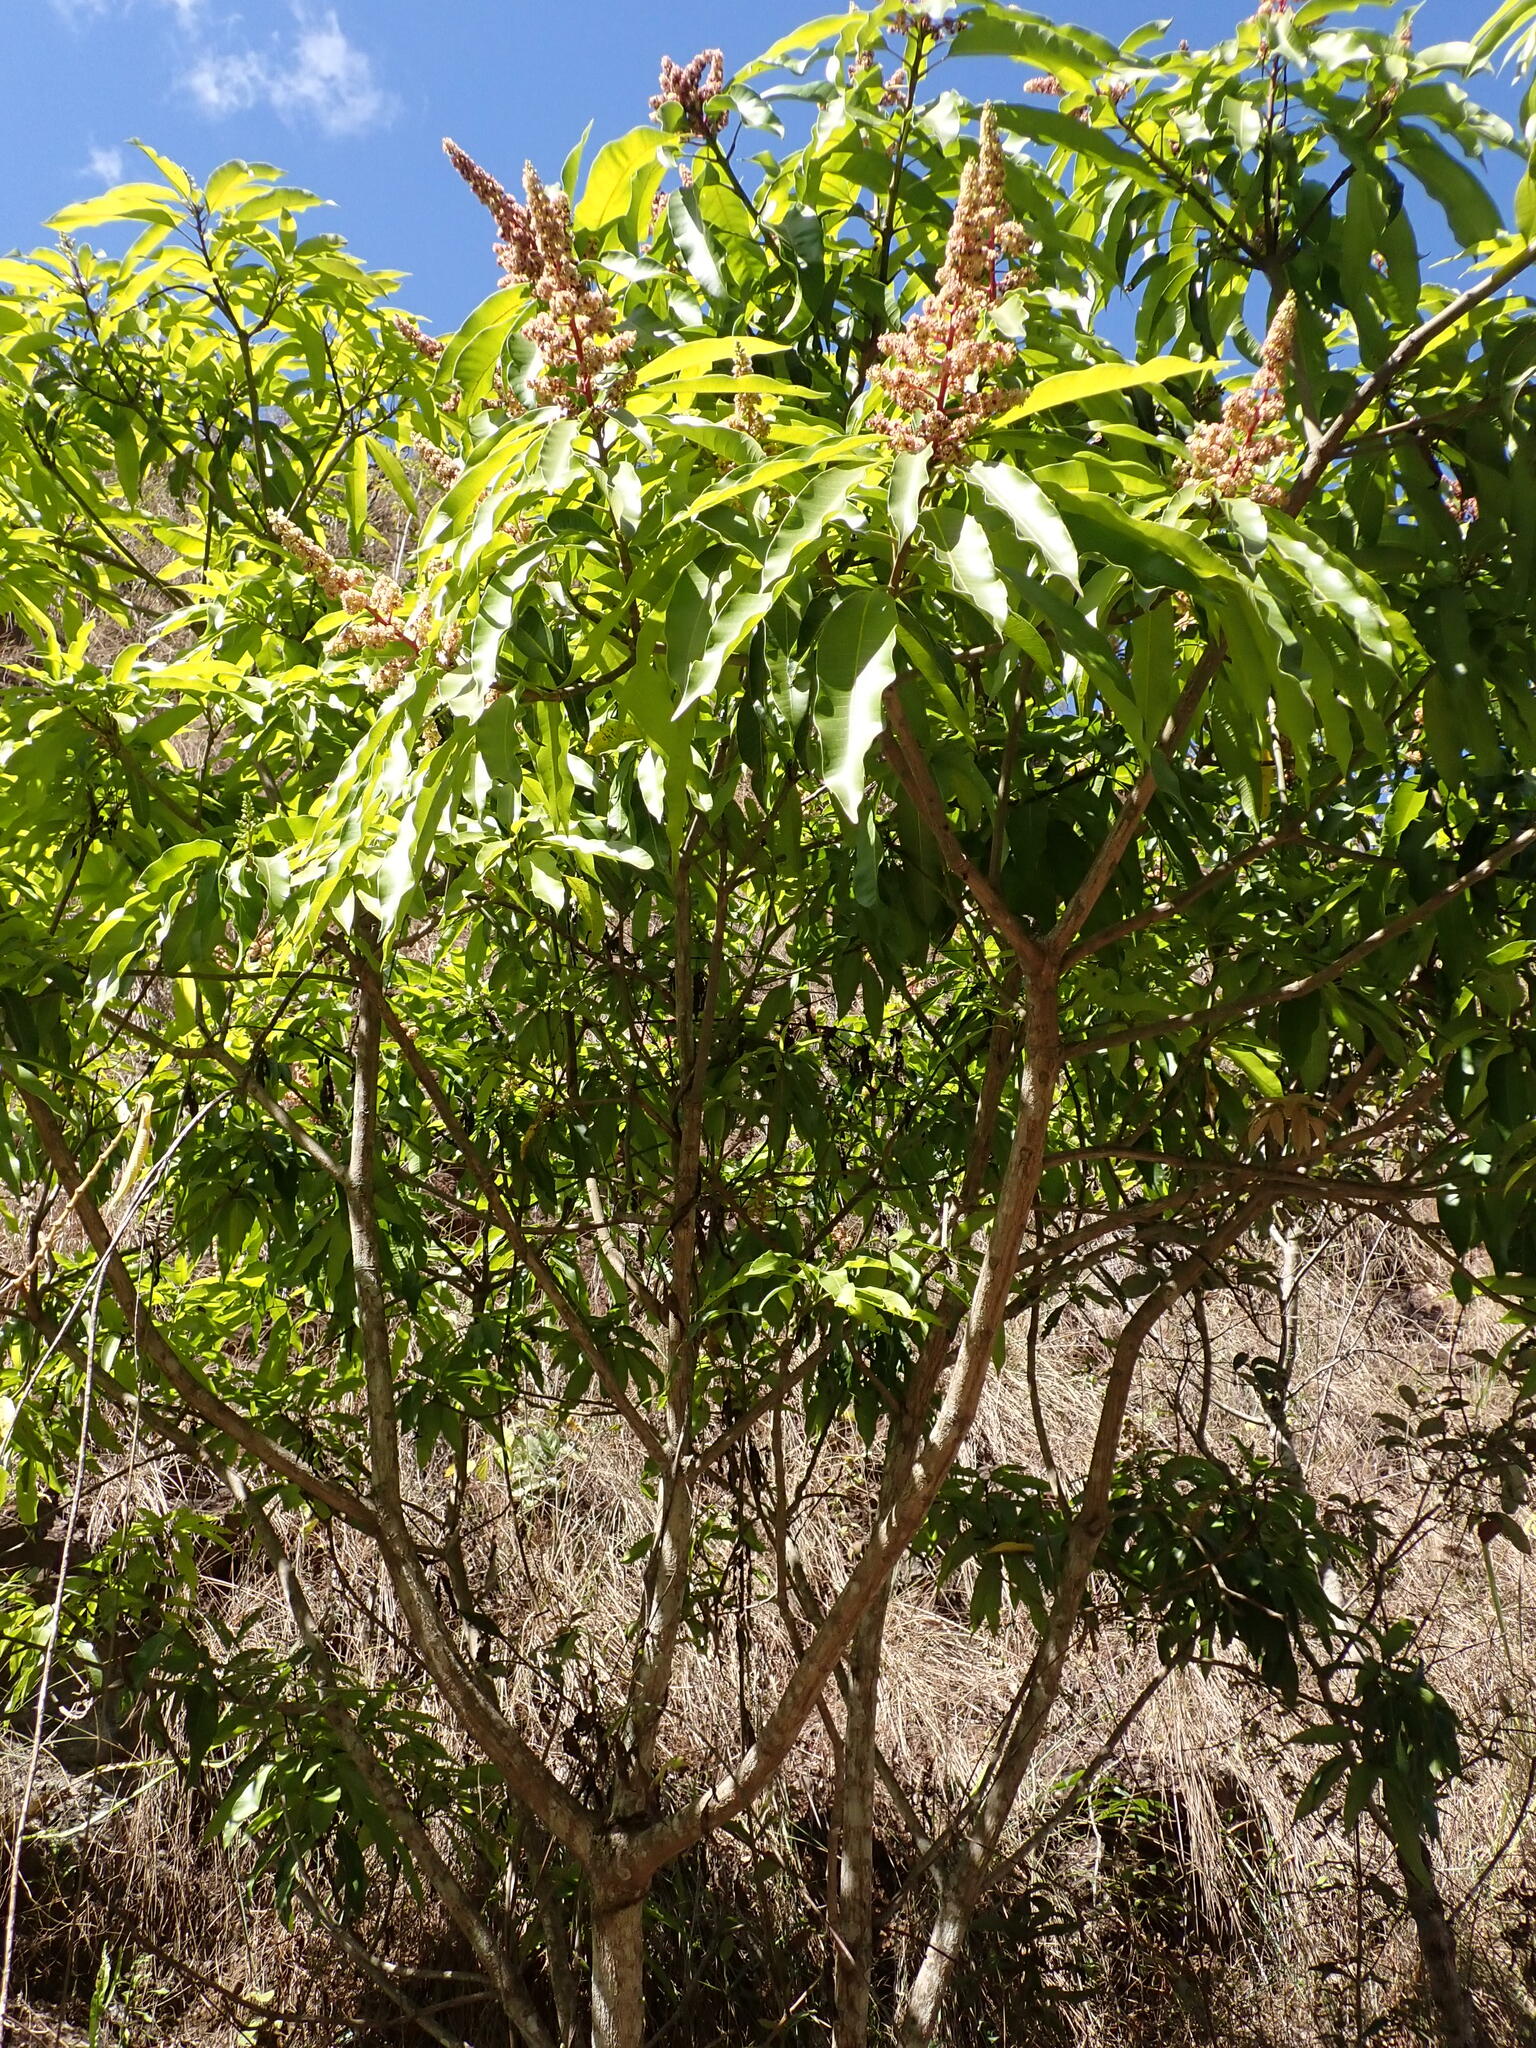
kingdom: Plantae
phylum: Tracheophyta
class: Magnoliopsida
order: Sapindales
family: Anacardiaceae
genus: Mangifera
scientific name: Mangifera indica
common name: Mango
